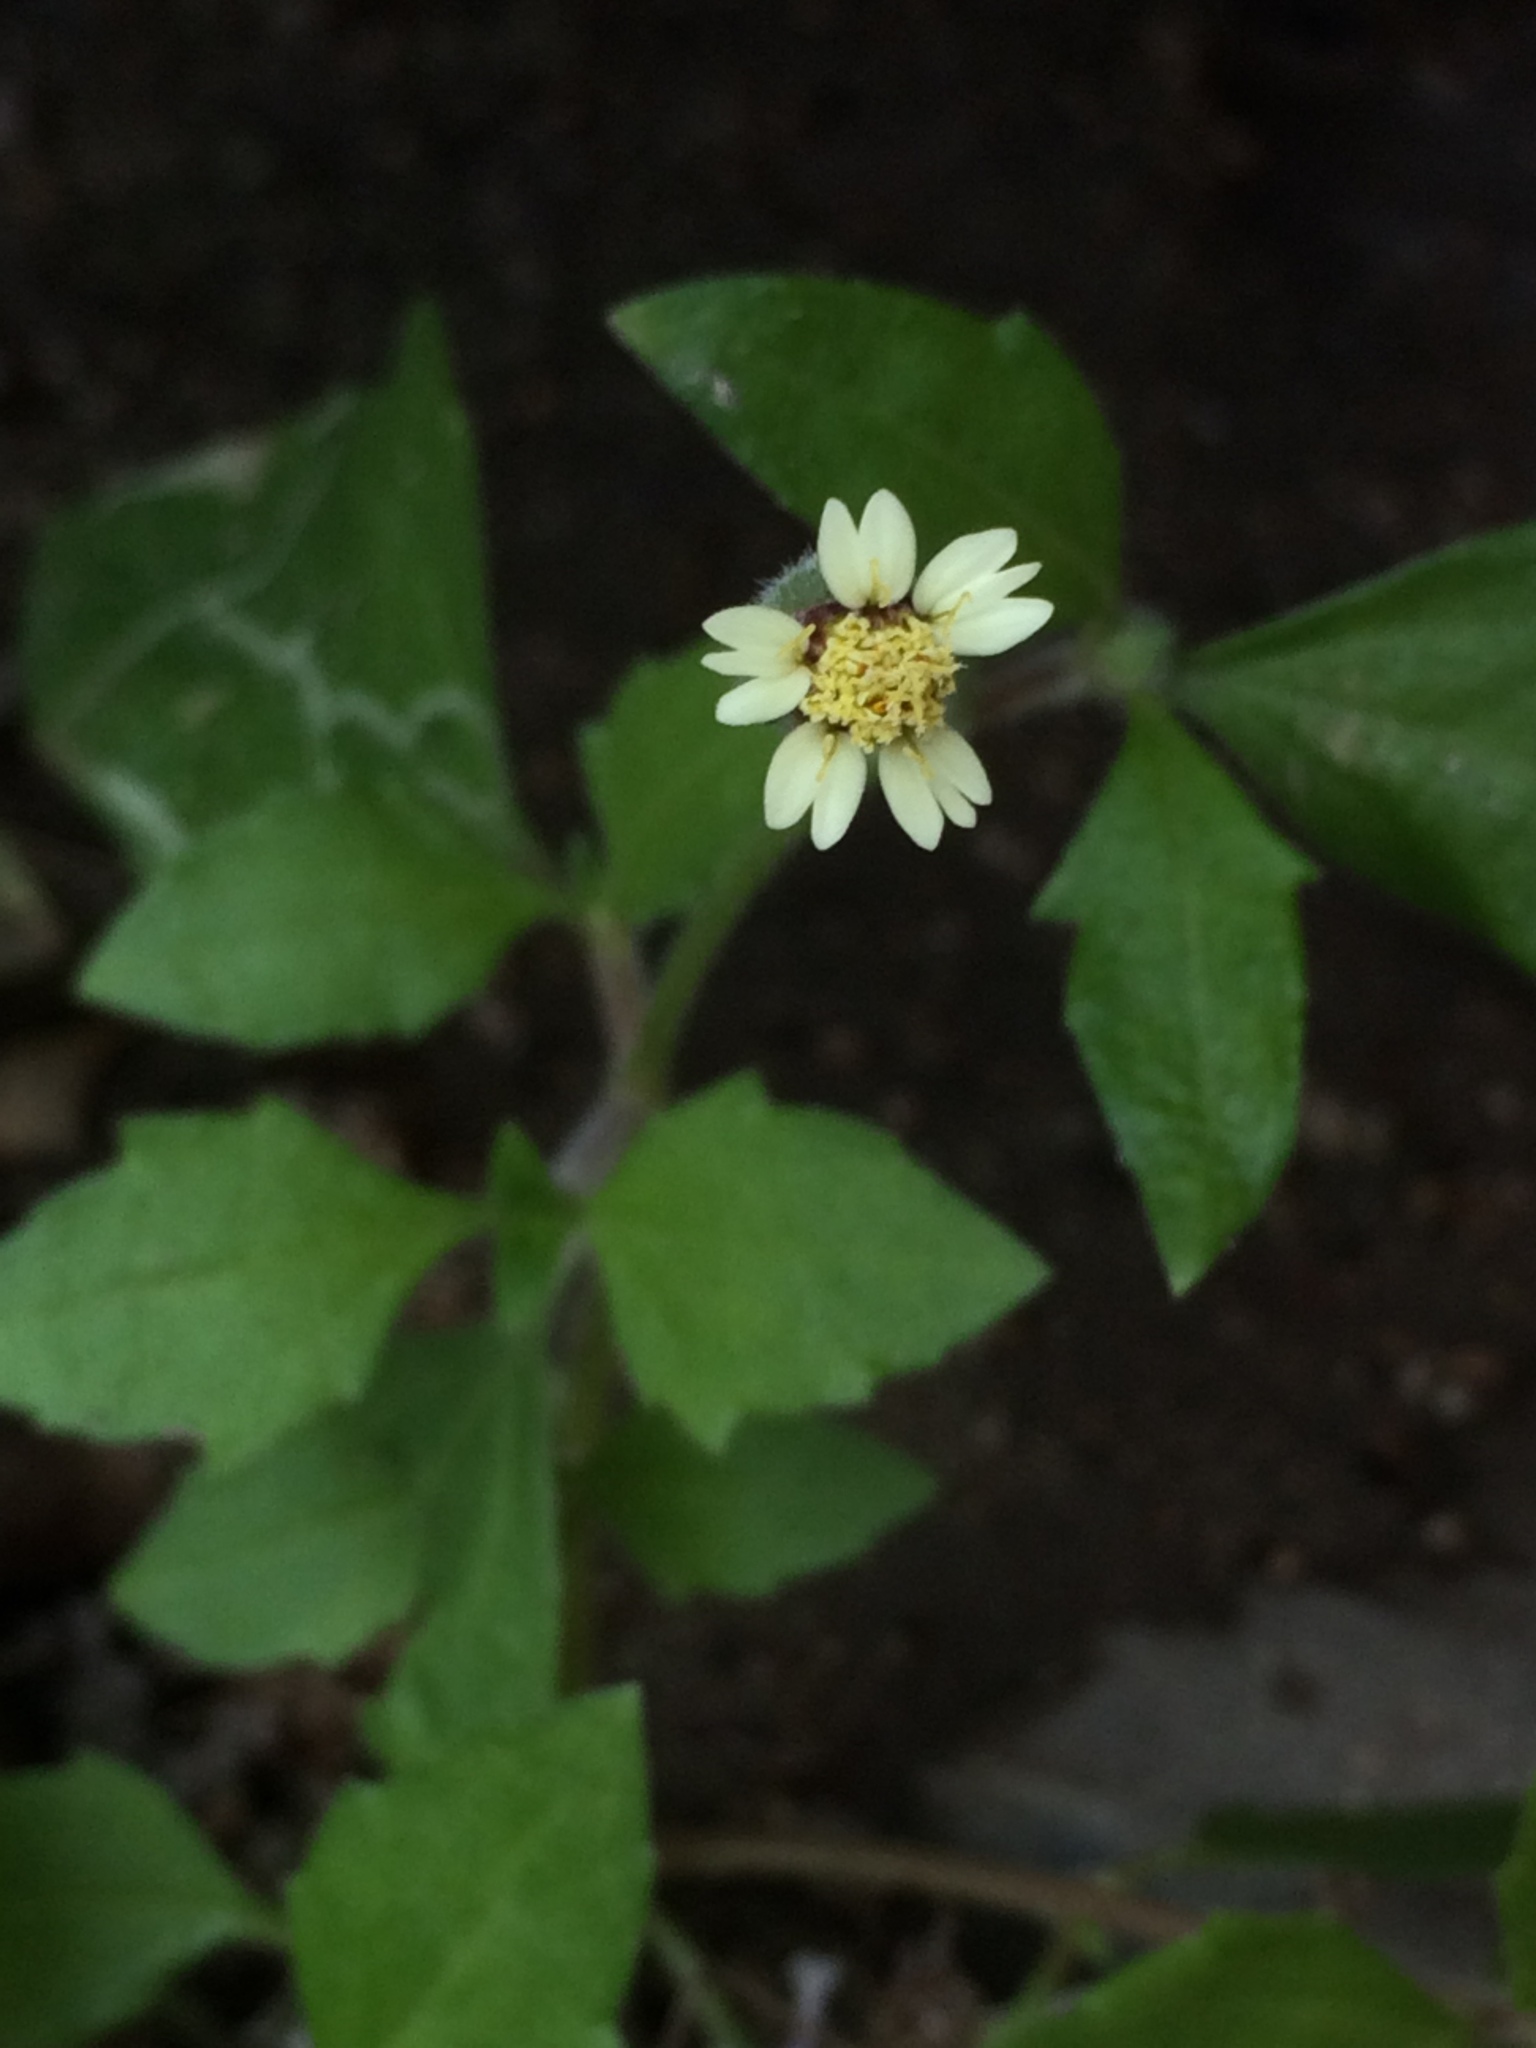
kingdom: Plantae
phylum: Tracheophyta
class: Magnoliopsida
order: Asterales
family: Asteraceae
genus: Tridax
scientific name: Tridax procumbens
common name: Coatbuttons
